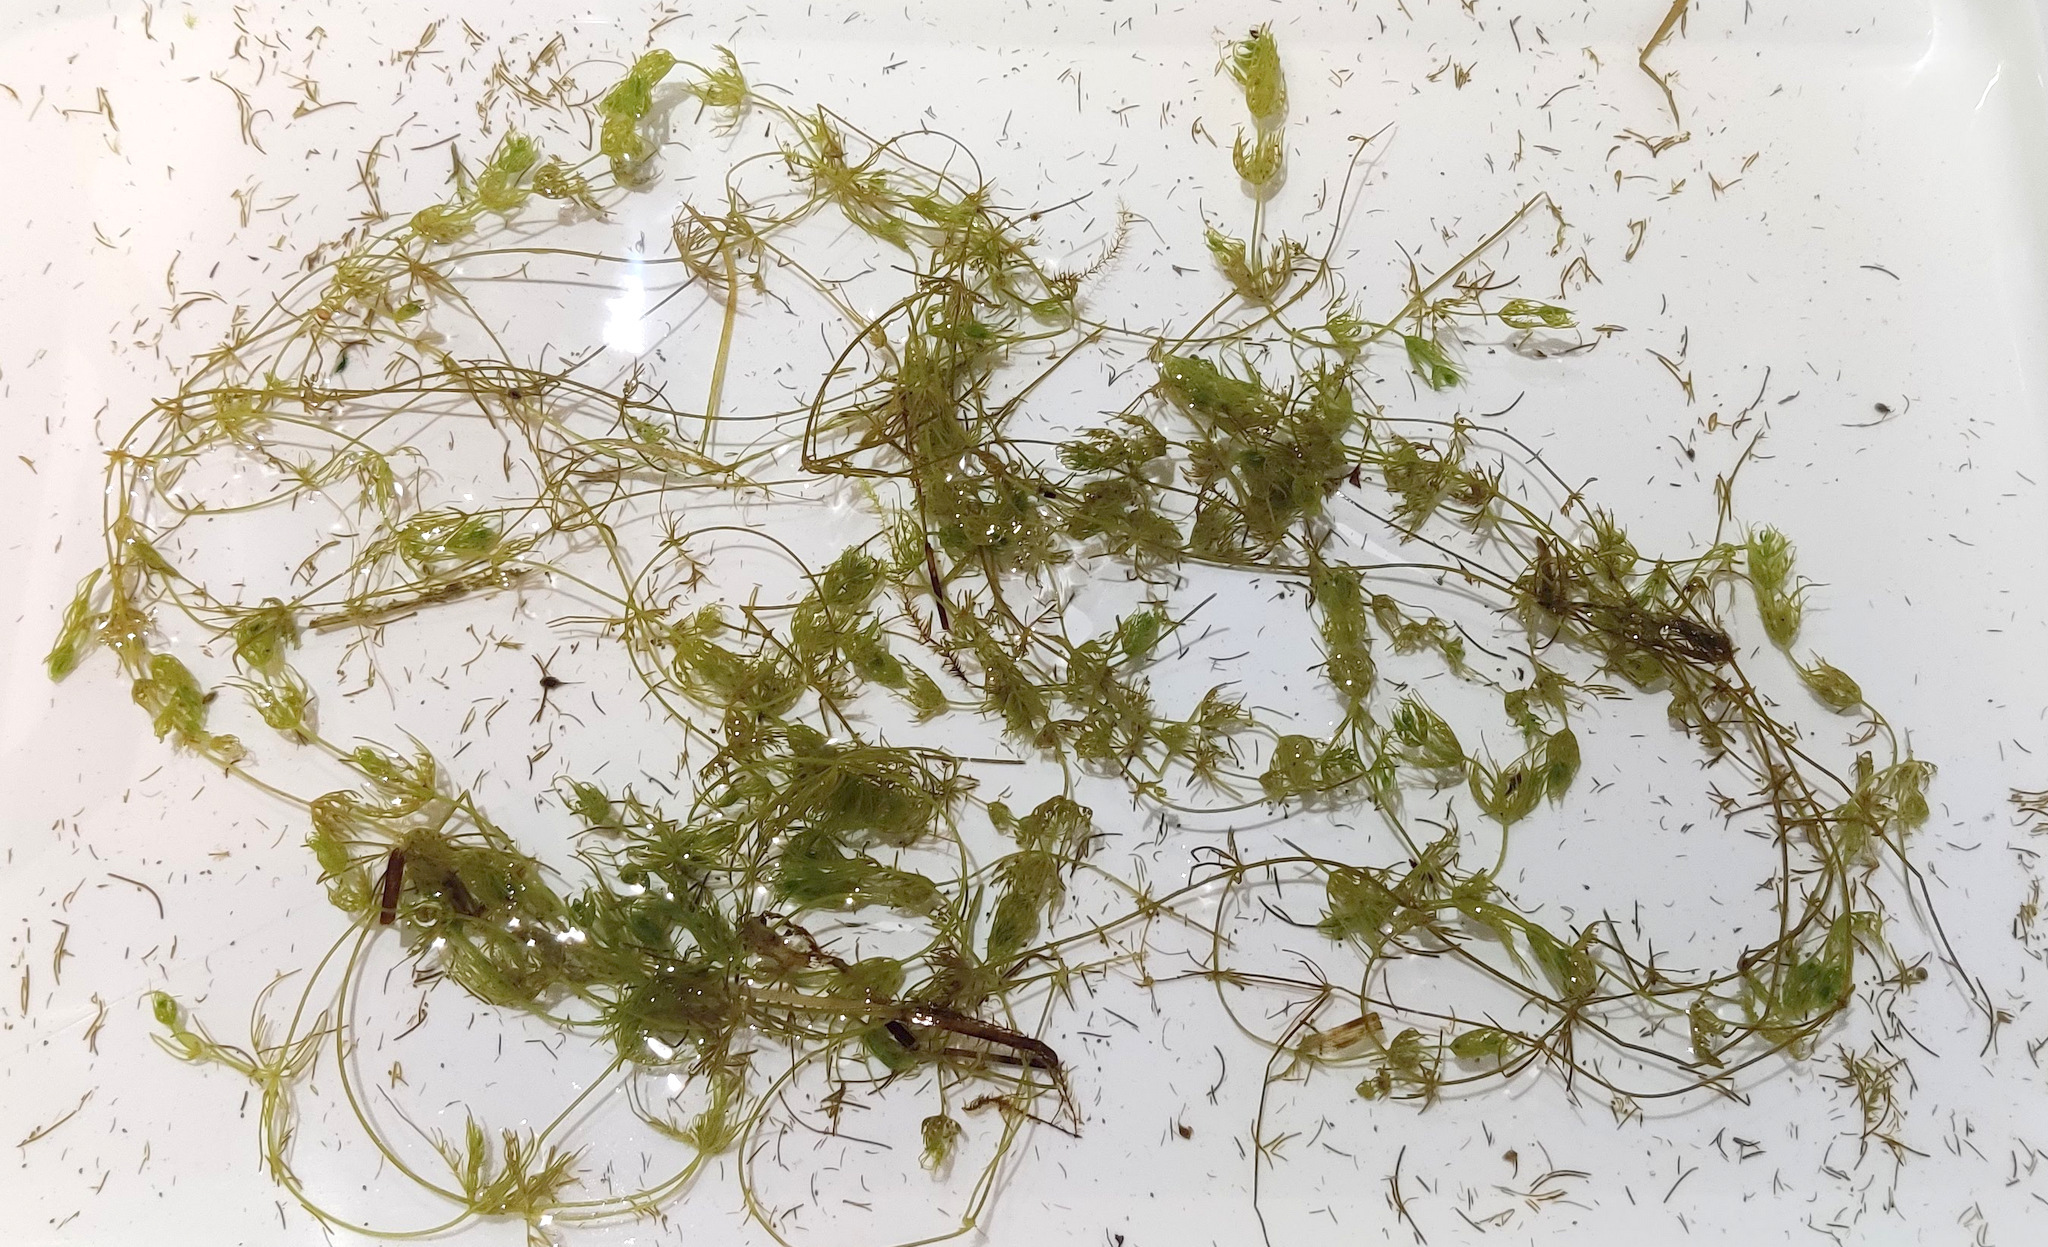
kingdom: Plantae
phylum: Charophyta
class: Charophyceae
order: Charales
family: Characeae
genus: Chara
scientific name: Chara vulgaris
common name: Common stonewort
